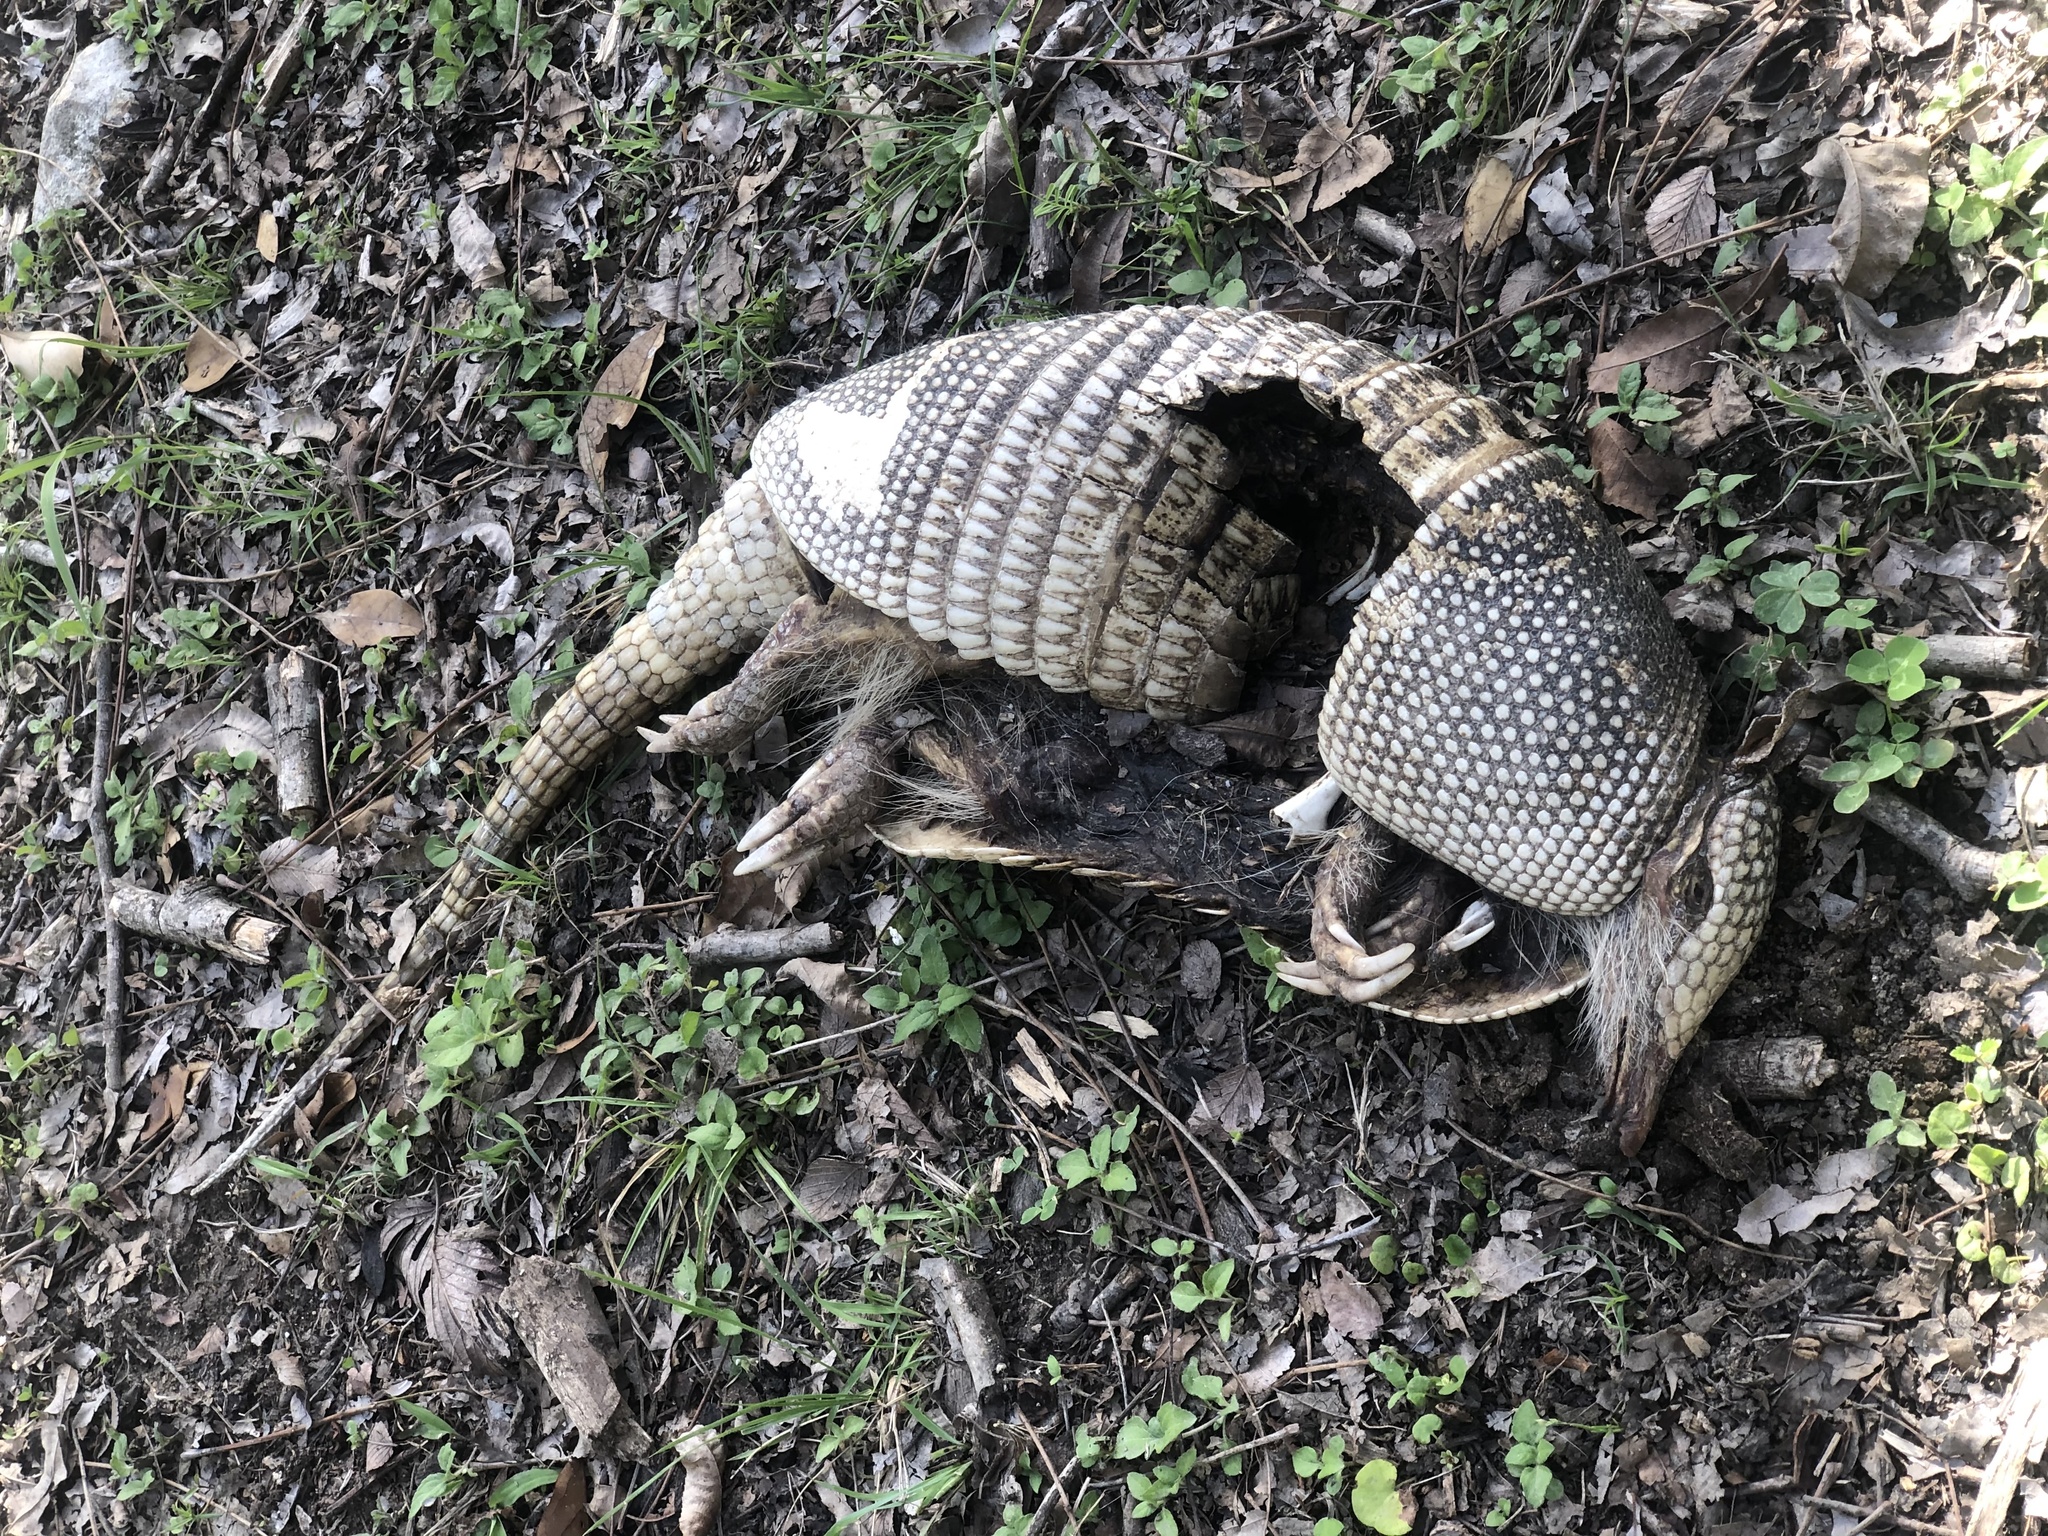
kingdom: Animalia
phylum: Chordata
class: Mammalia
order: Cingulata
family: Dasypodidae
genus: Dasypus
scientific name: Dasypus novemcinctus
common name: Nine-banded armadillo
